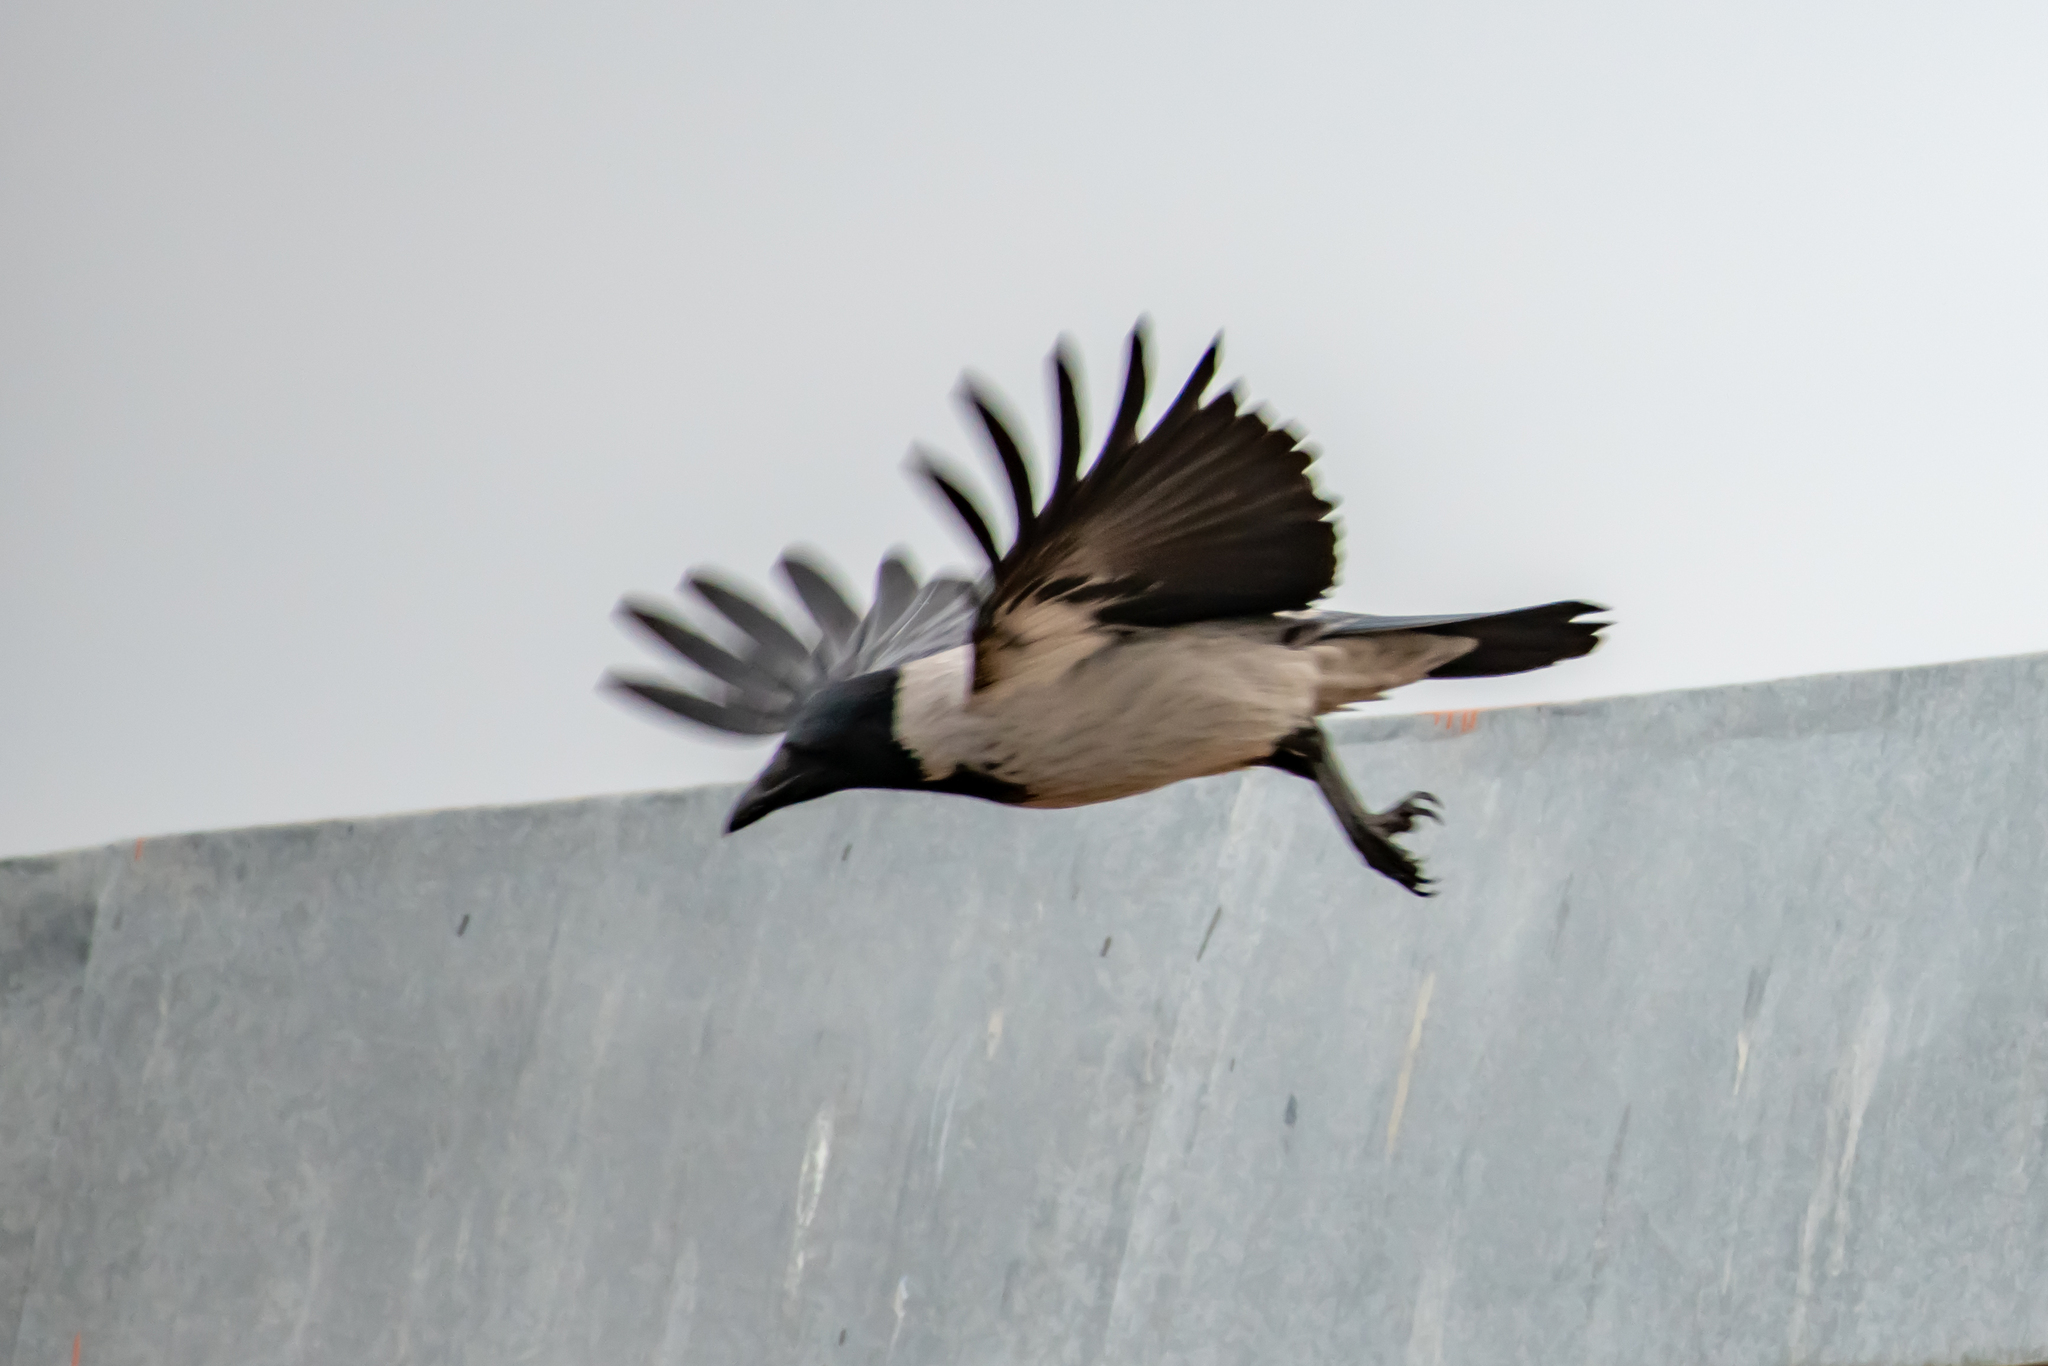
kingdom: Animalia
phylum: Chordata
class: Aves
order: Passeriformes
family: Corvidae
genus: Corvus
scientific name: Corvus cornix
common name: Hooded crow
